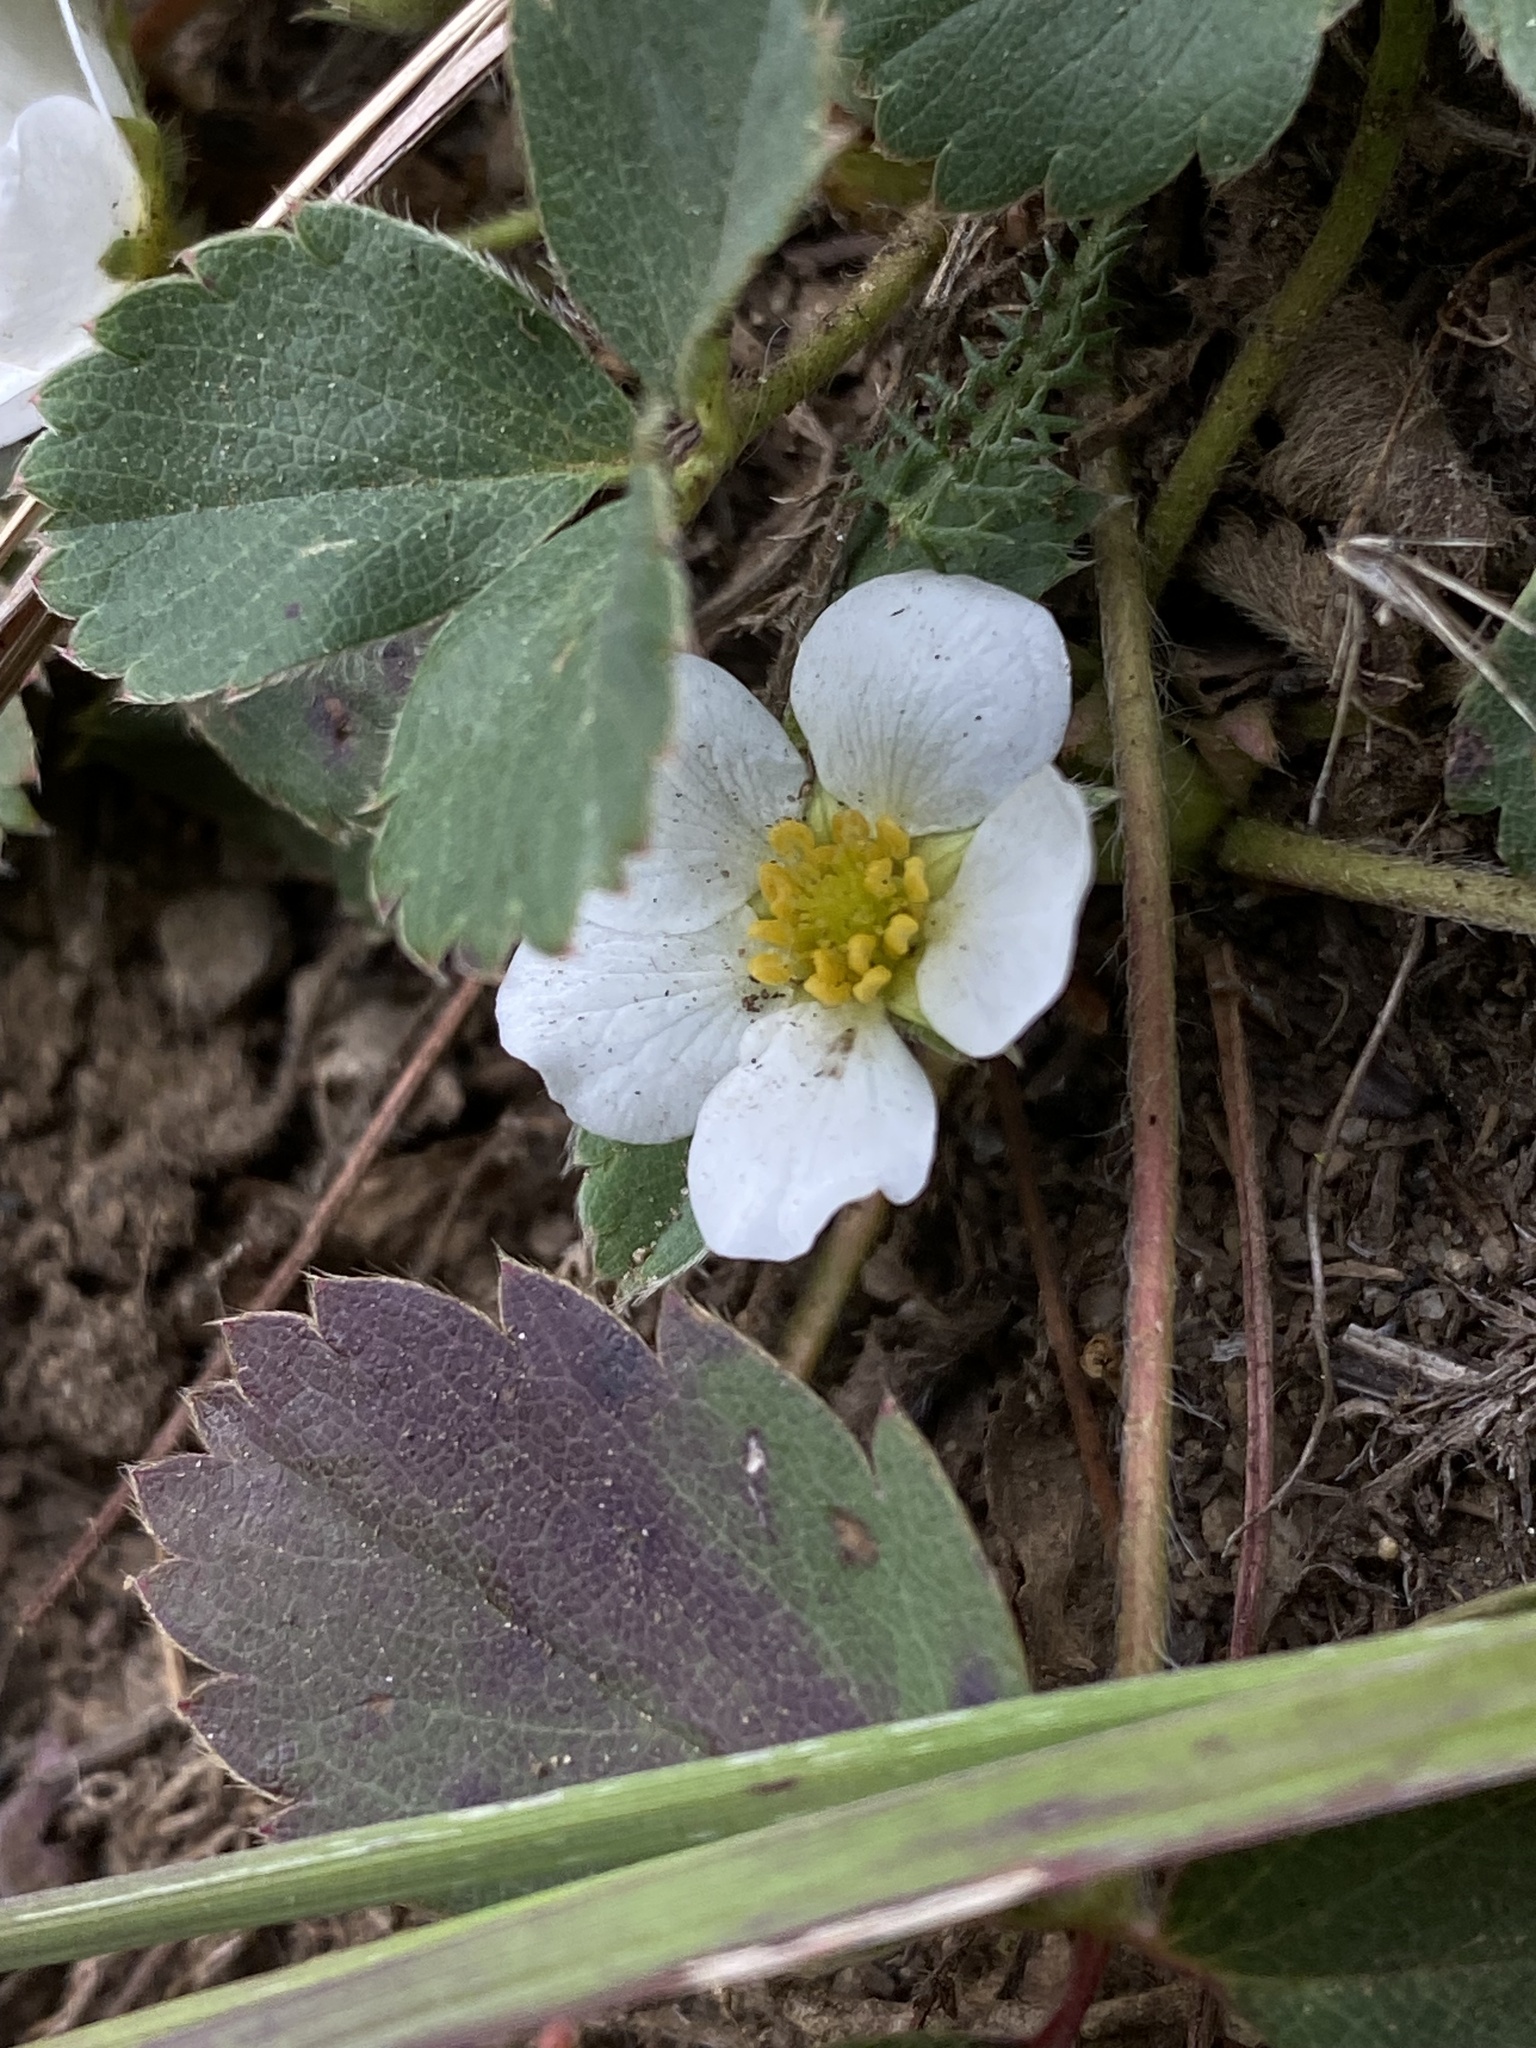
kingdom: Plantae
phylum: Tracheophyta
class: Magnoliopsida
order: Rosales
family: Rosaceae
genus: Fragaria
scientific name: Fragaria virginiana
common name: Thickleaved wild strawberry
